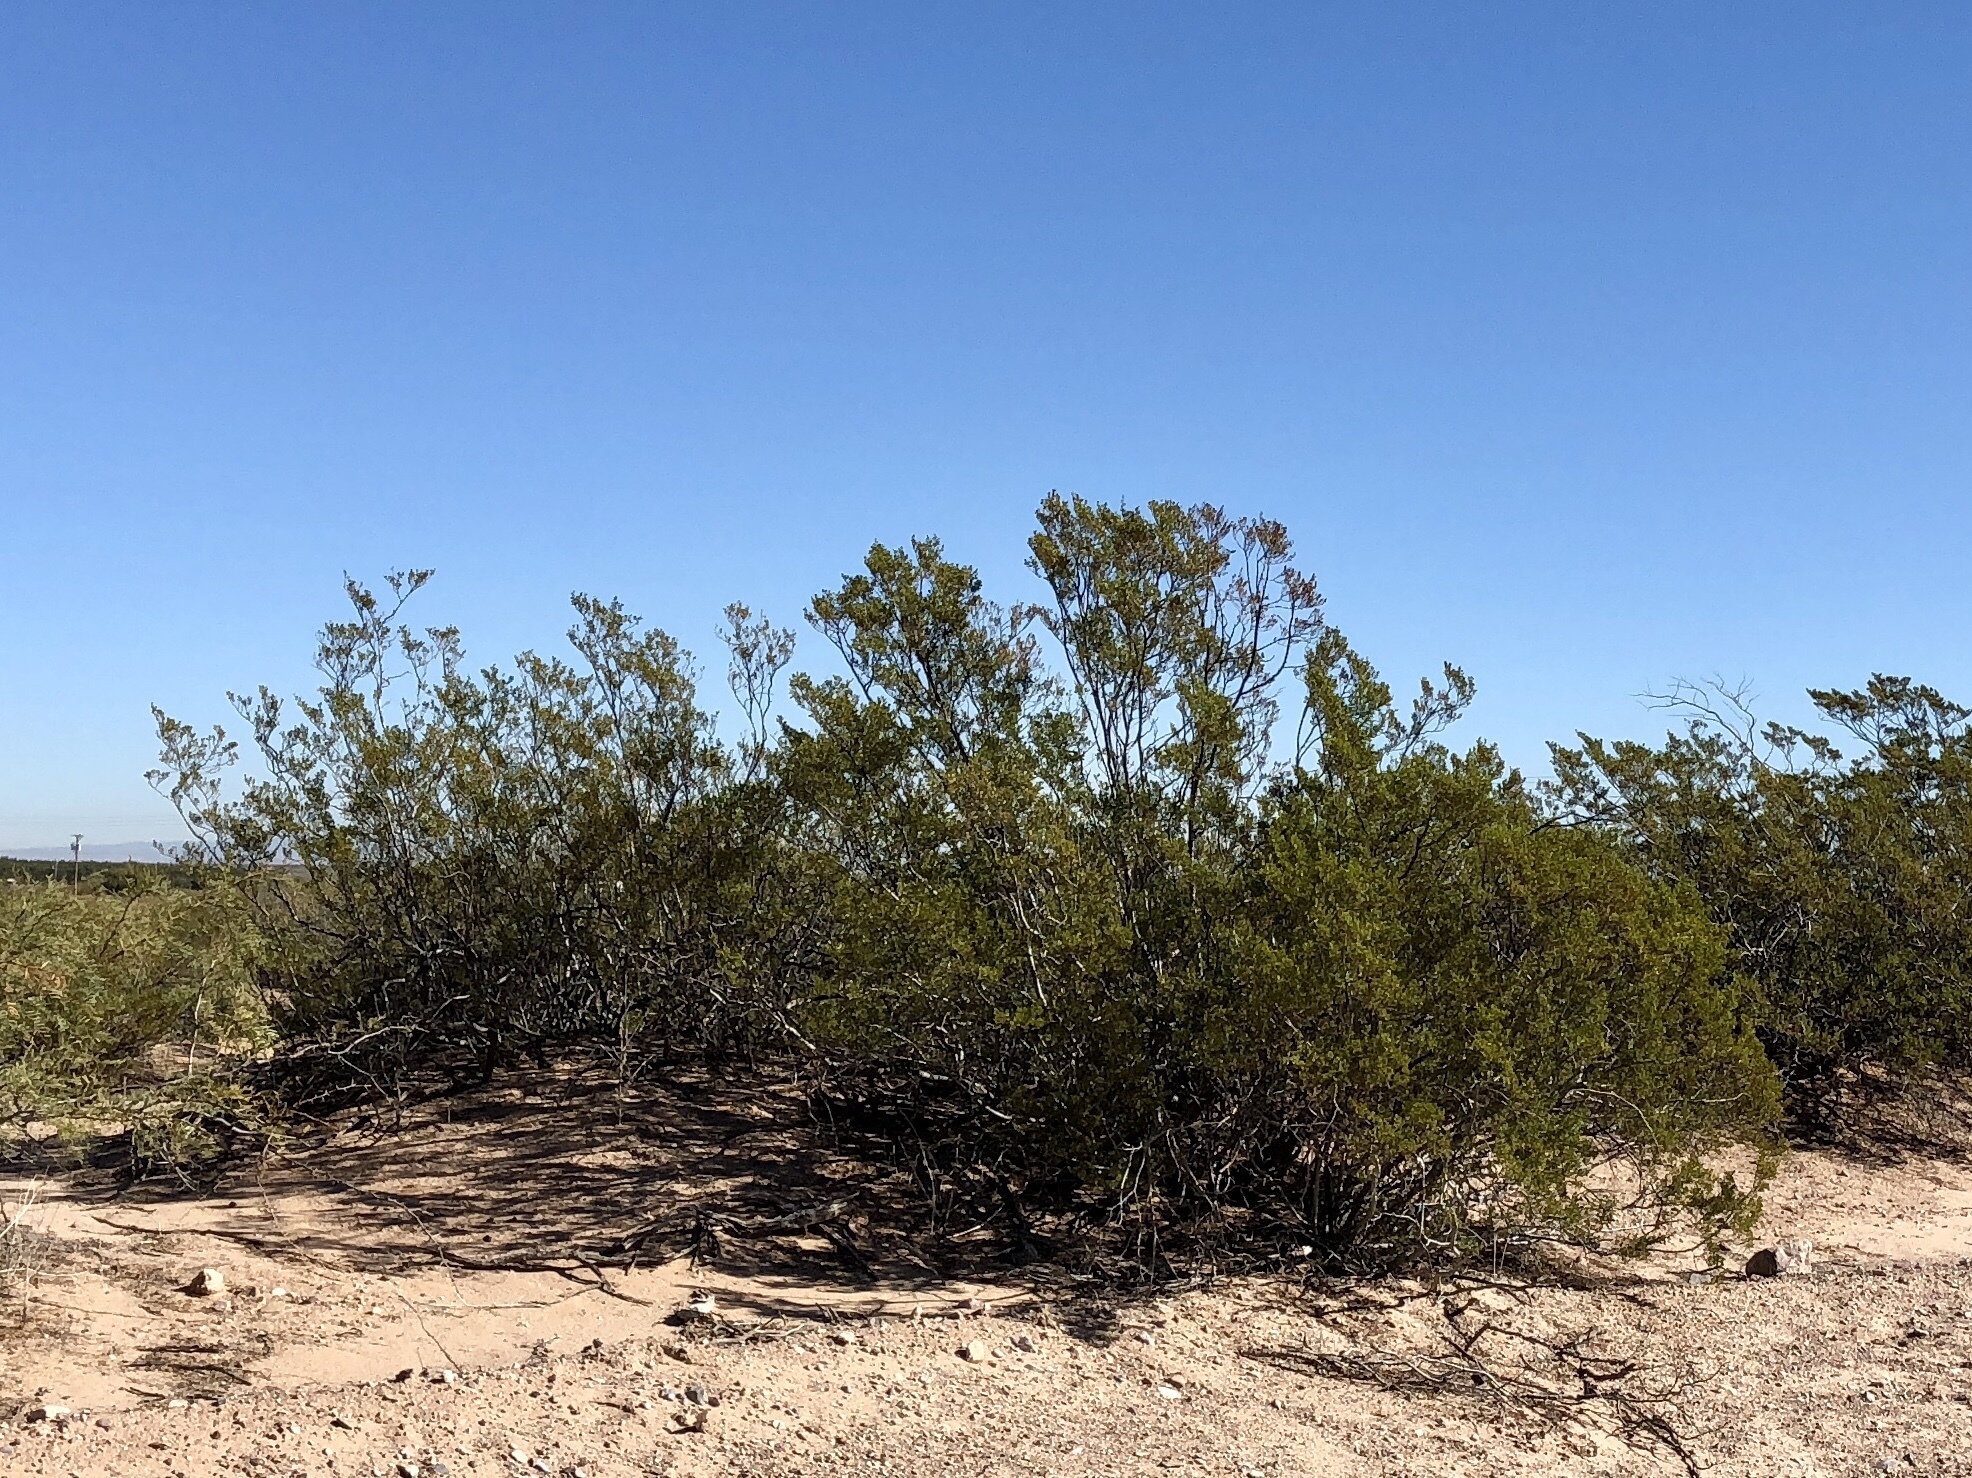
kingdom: Plantae
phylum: Tracheophyta
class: Magnoliopsida
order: Zygophyllales
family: Zygophyllaceae
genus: Larrea
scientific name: Larrea tridentata
